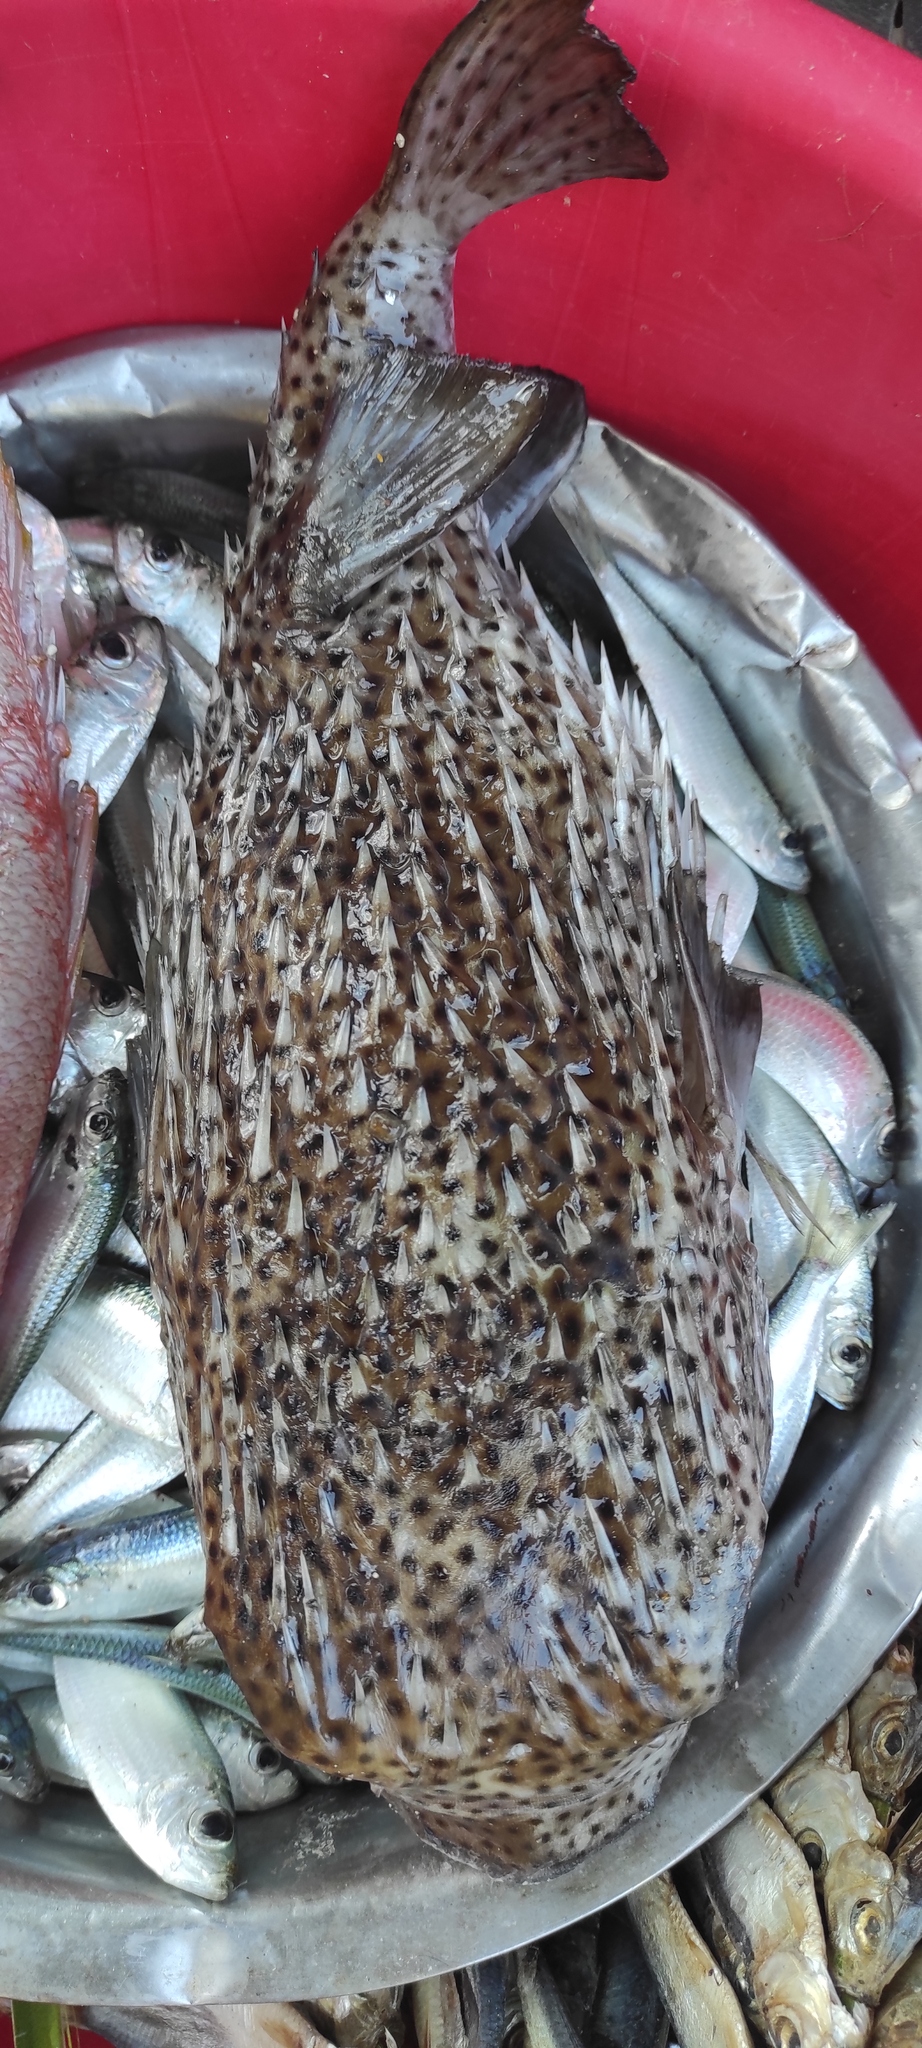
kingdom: Animalia
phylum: Chordata
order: Tetraodontiformes
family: Diodontidae
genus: Diodon
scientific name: Diodon hystrix
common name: Giant porcupinefish
